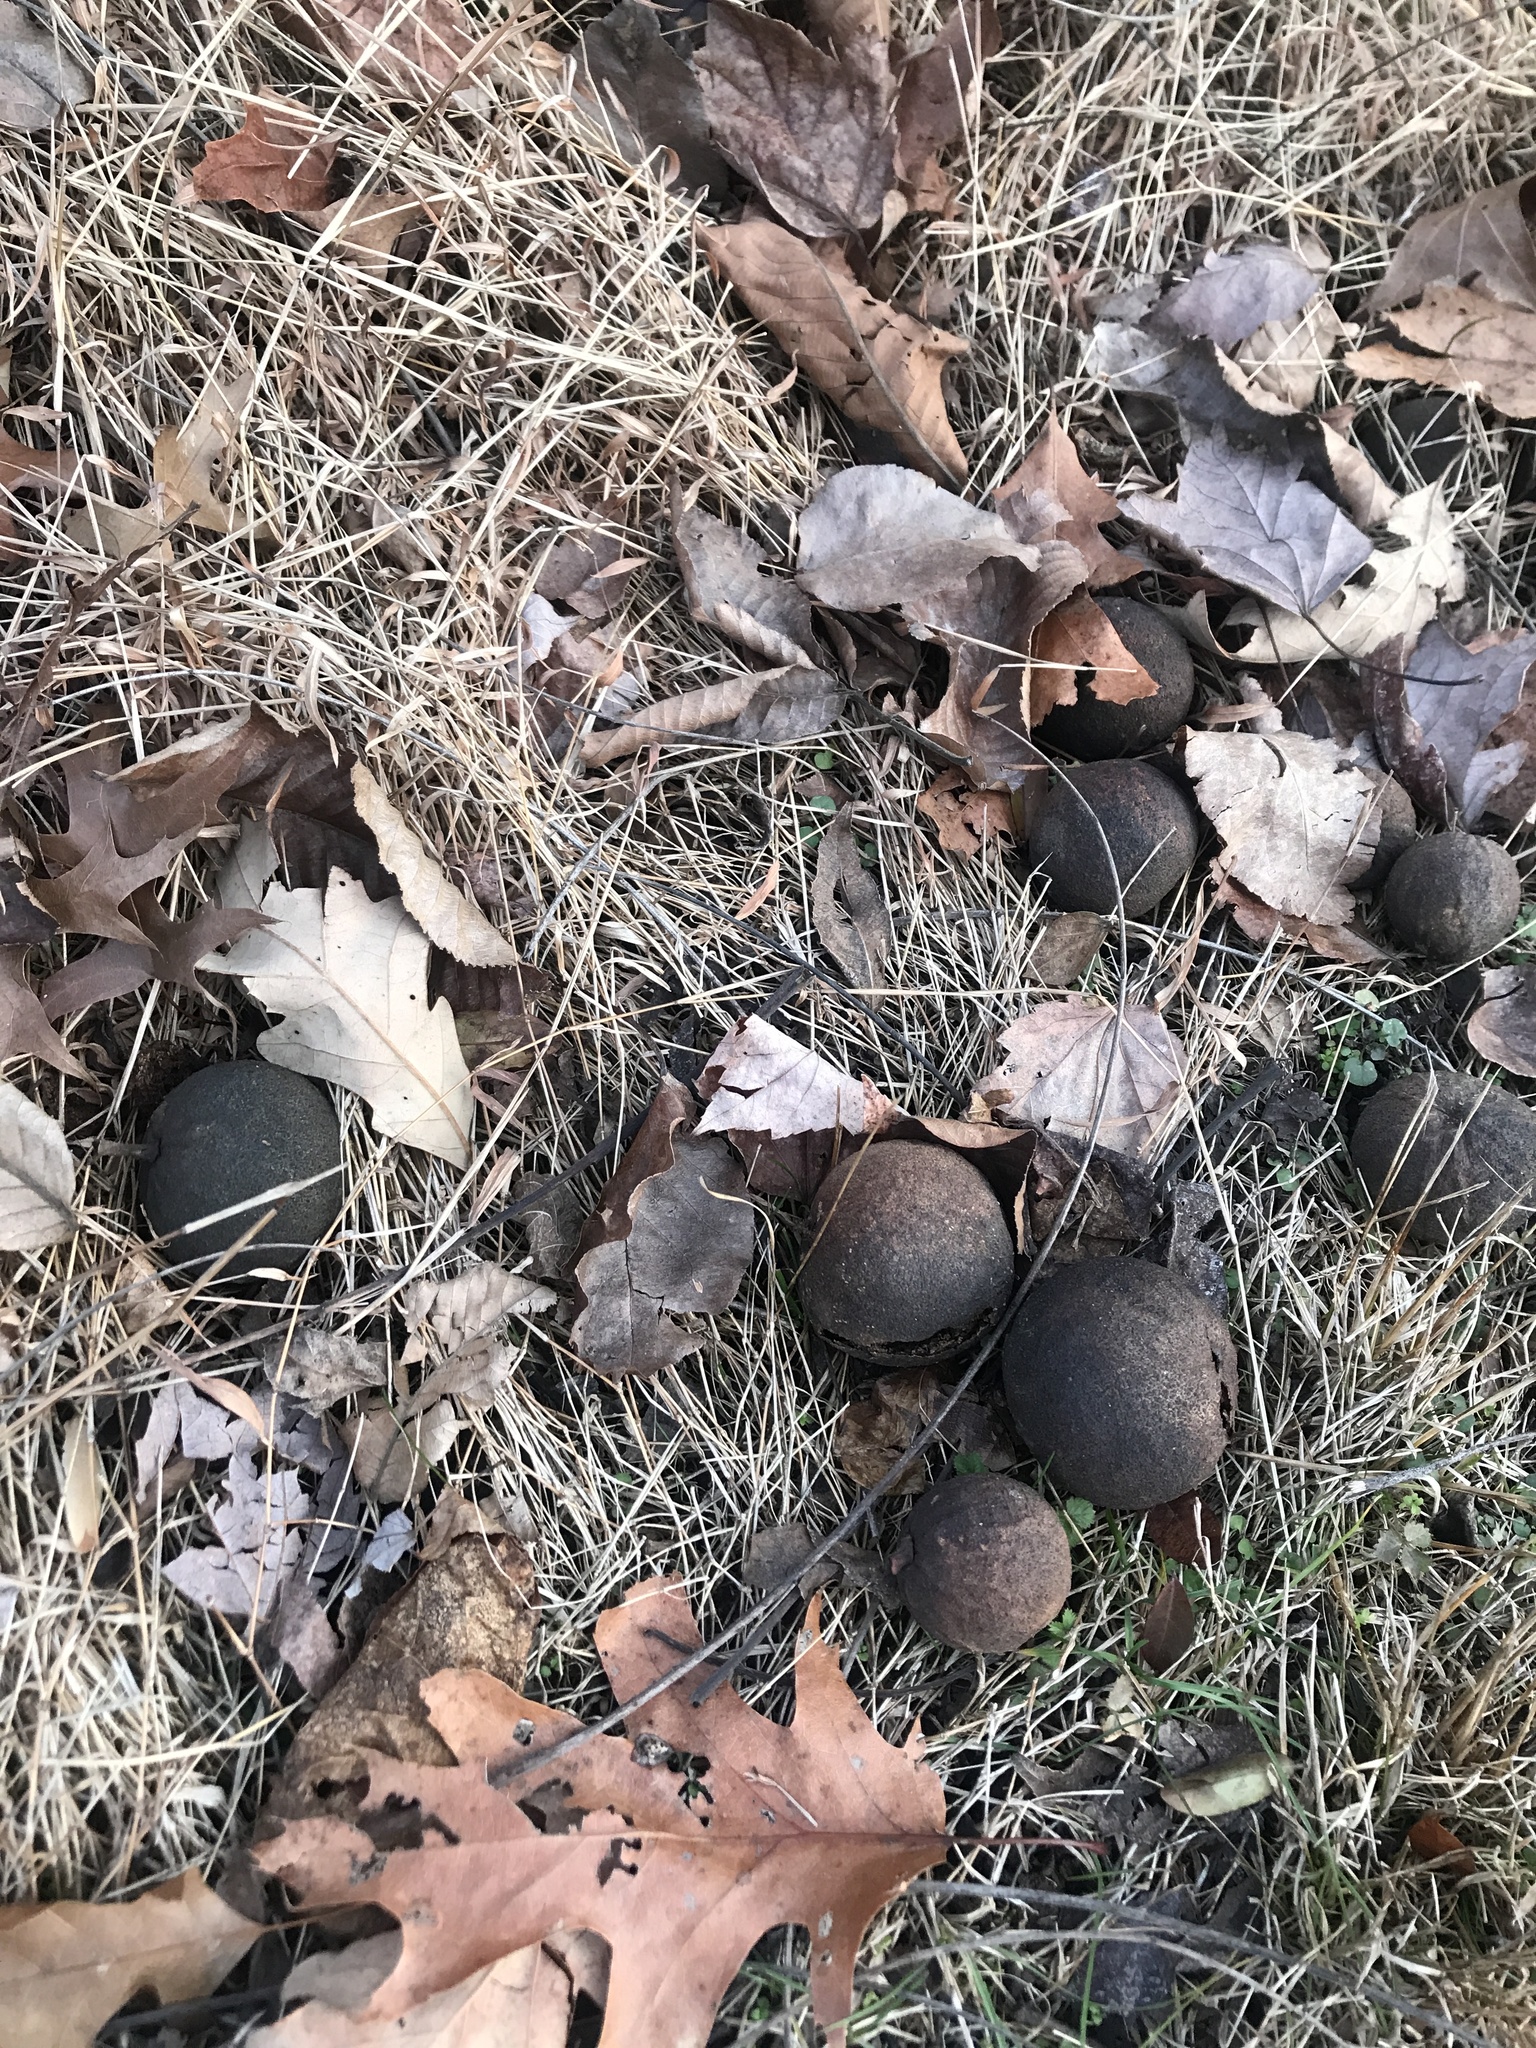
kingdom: Plantae
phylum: Tracheophyta
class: Magnoliopsida
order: Fagales
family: Juglandaceae
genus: Juglans
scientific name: Juglans nigra
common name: Black walnut
